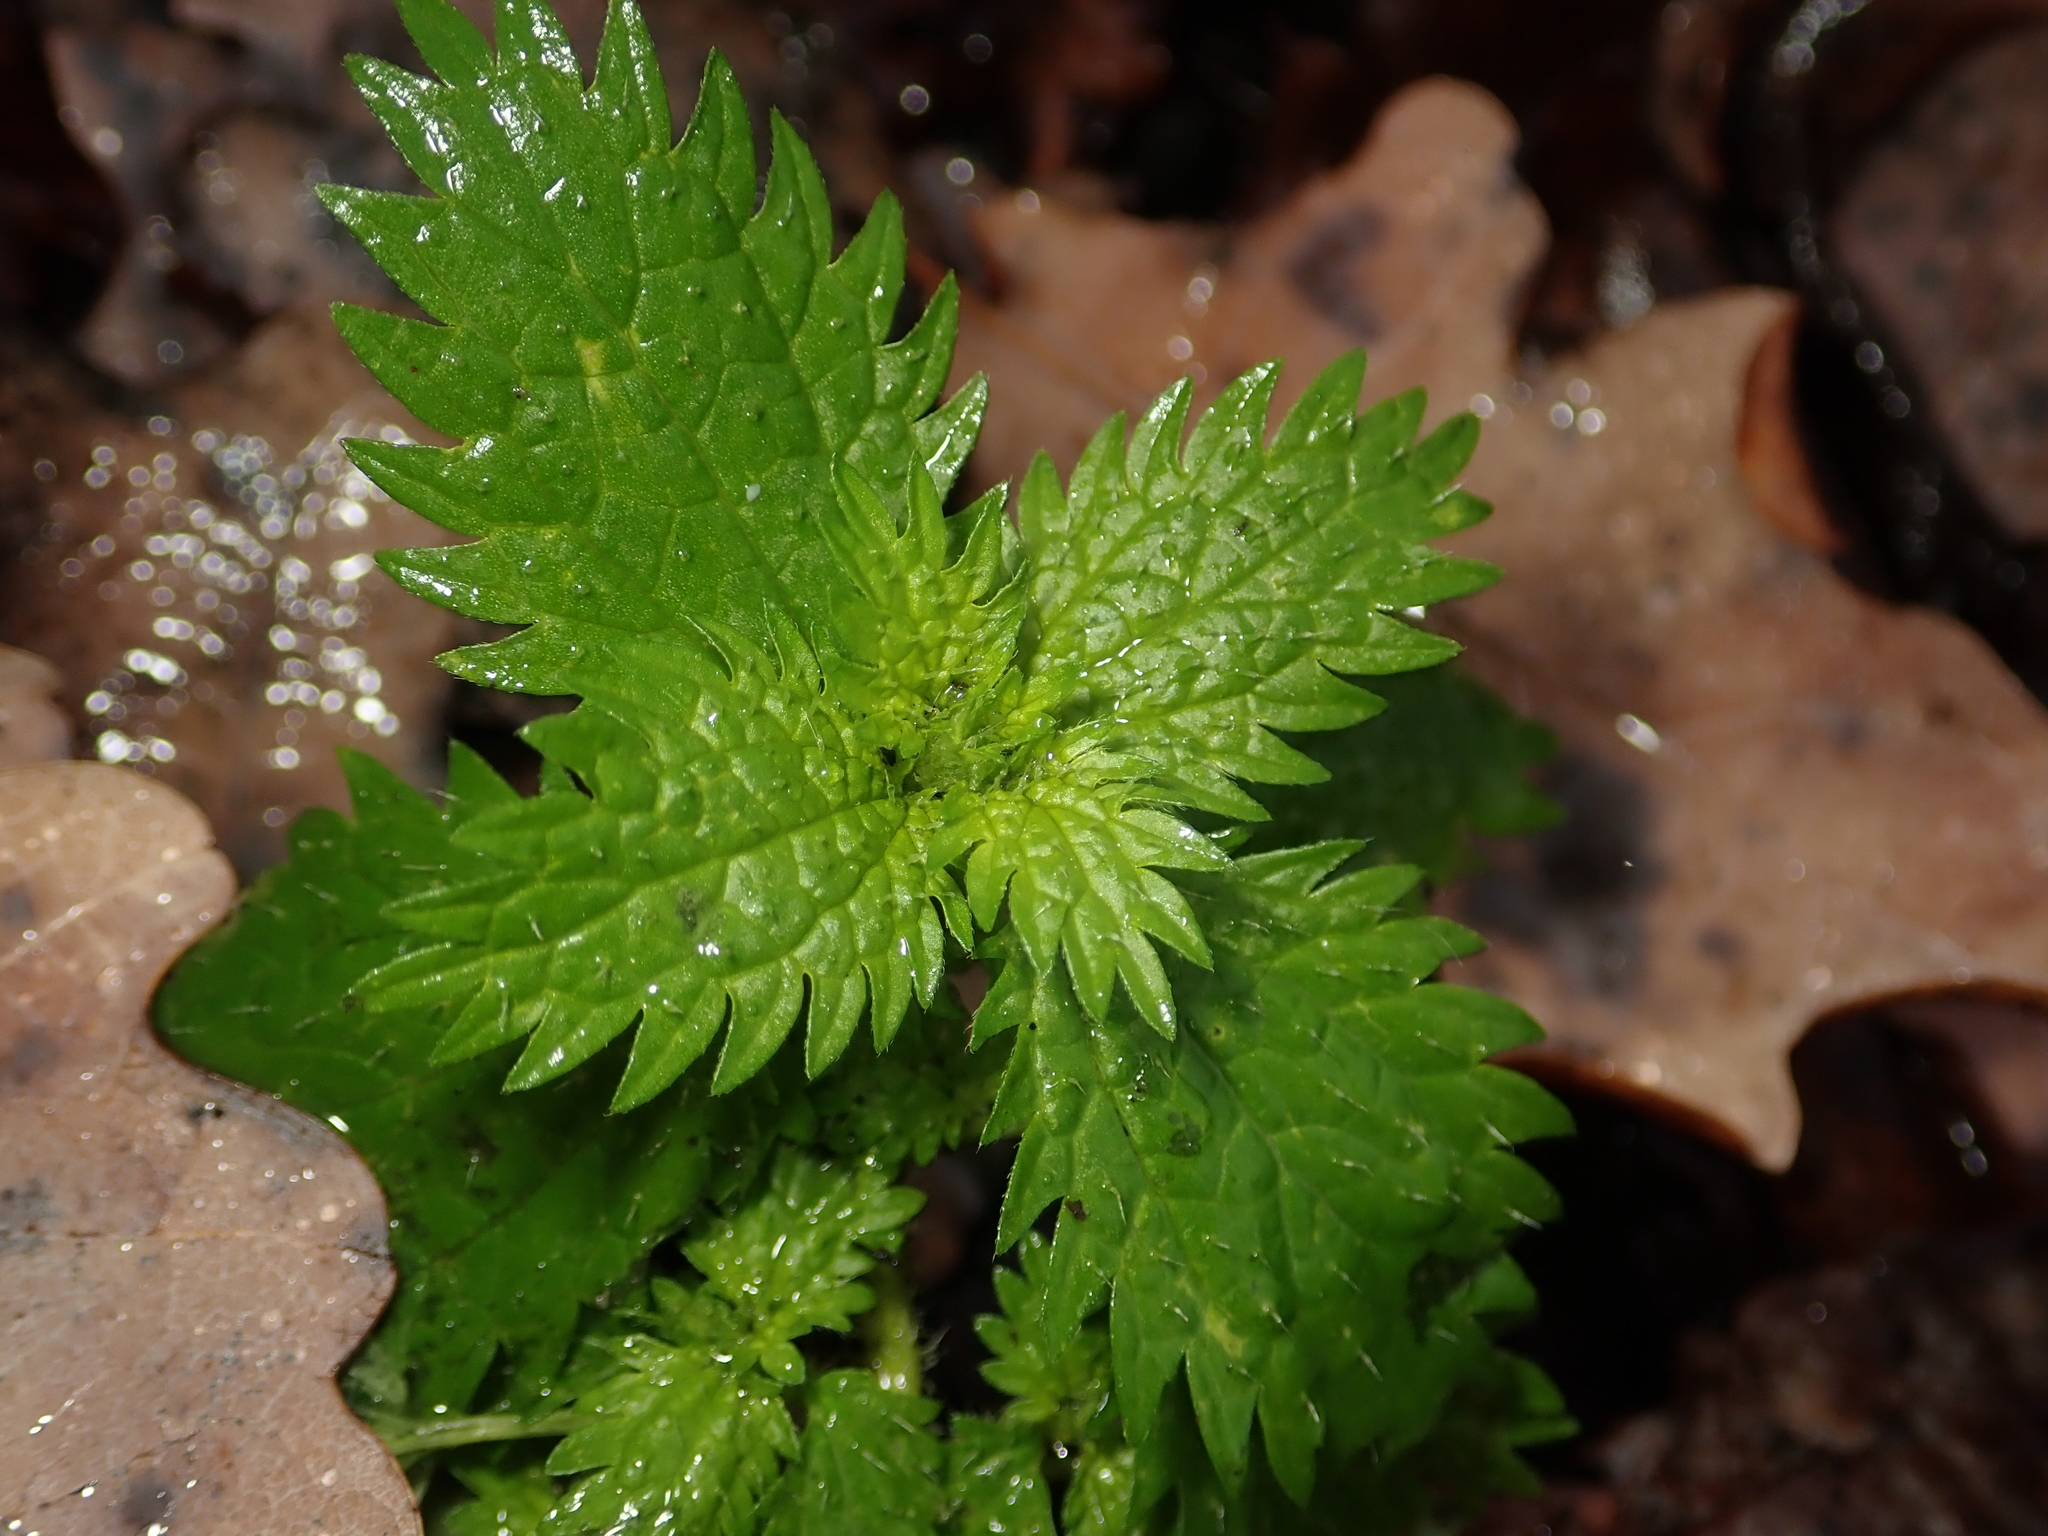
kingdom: Plantae
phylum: Tracheophyta
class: Magnoliopsida
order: Rosales
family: Urticaceae
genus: Urtica
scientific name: Urtica urens
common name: Dwarf nettle
